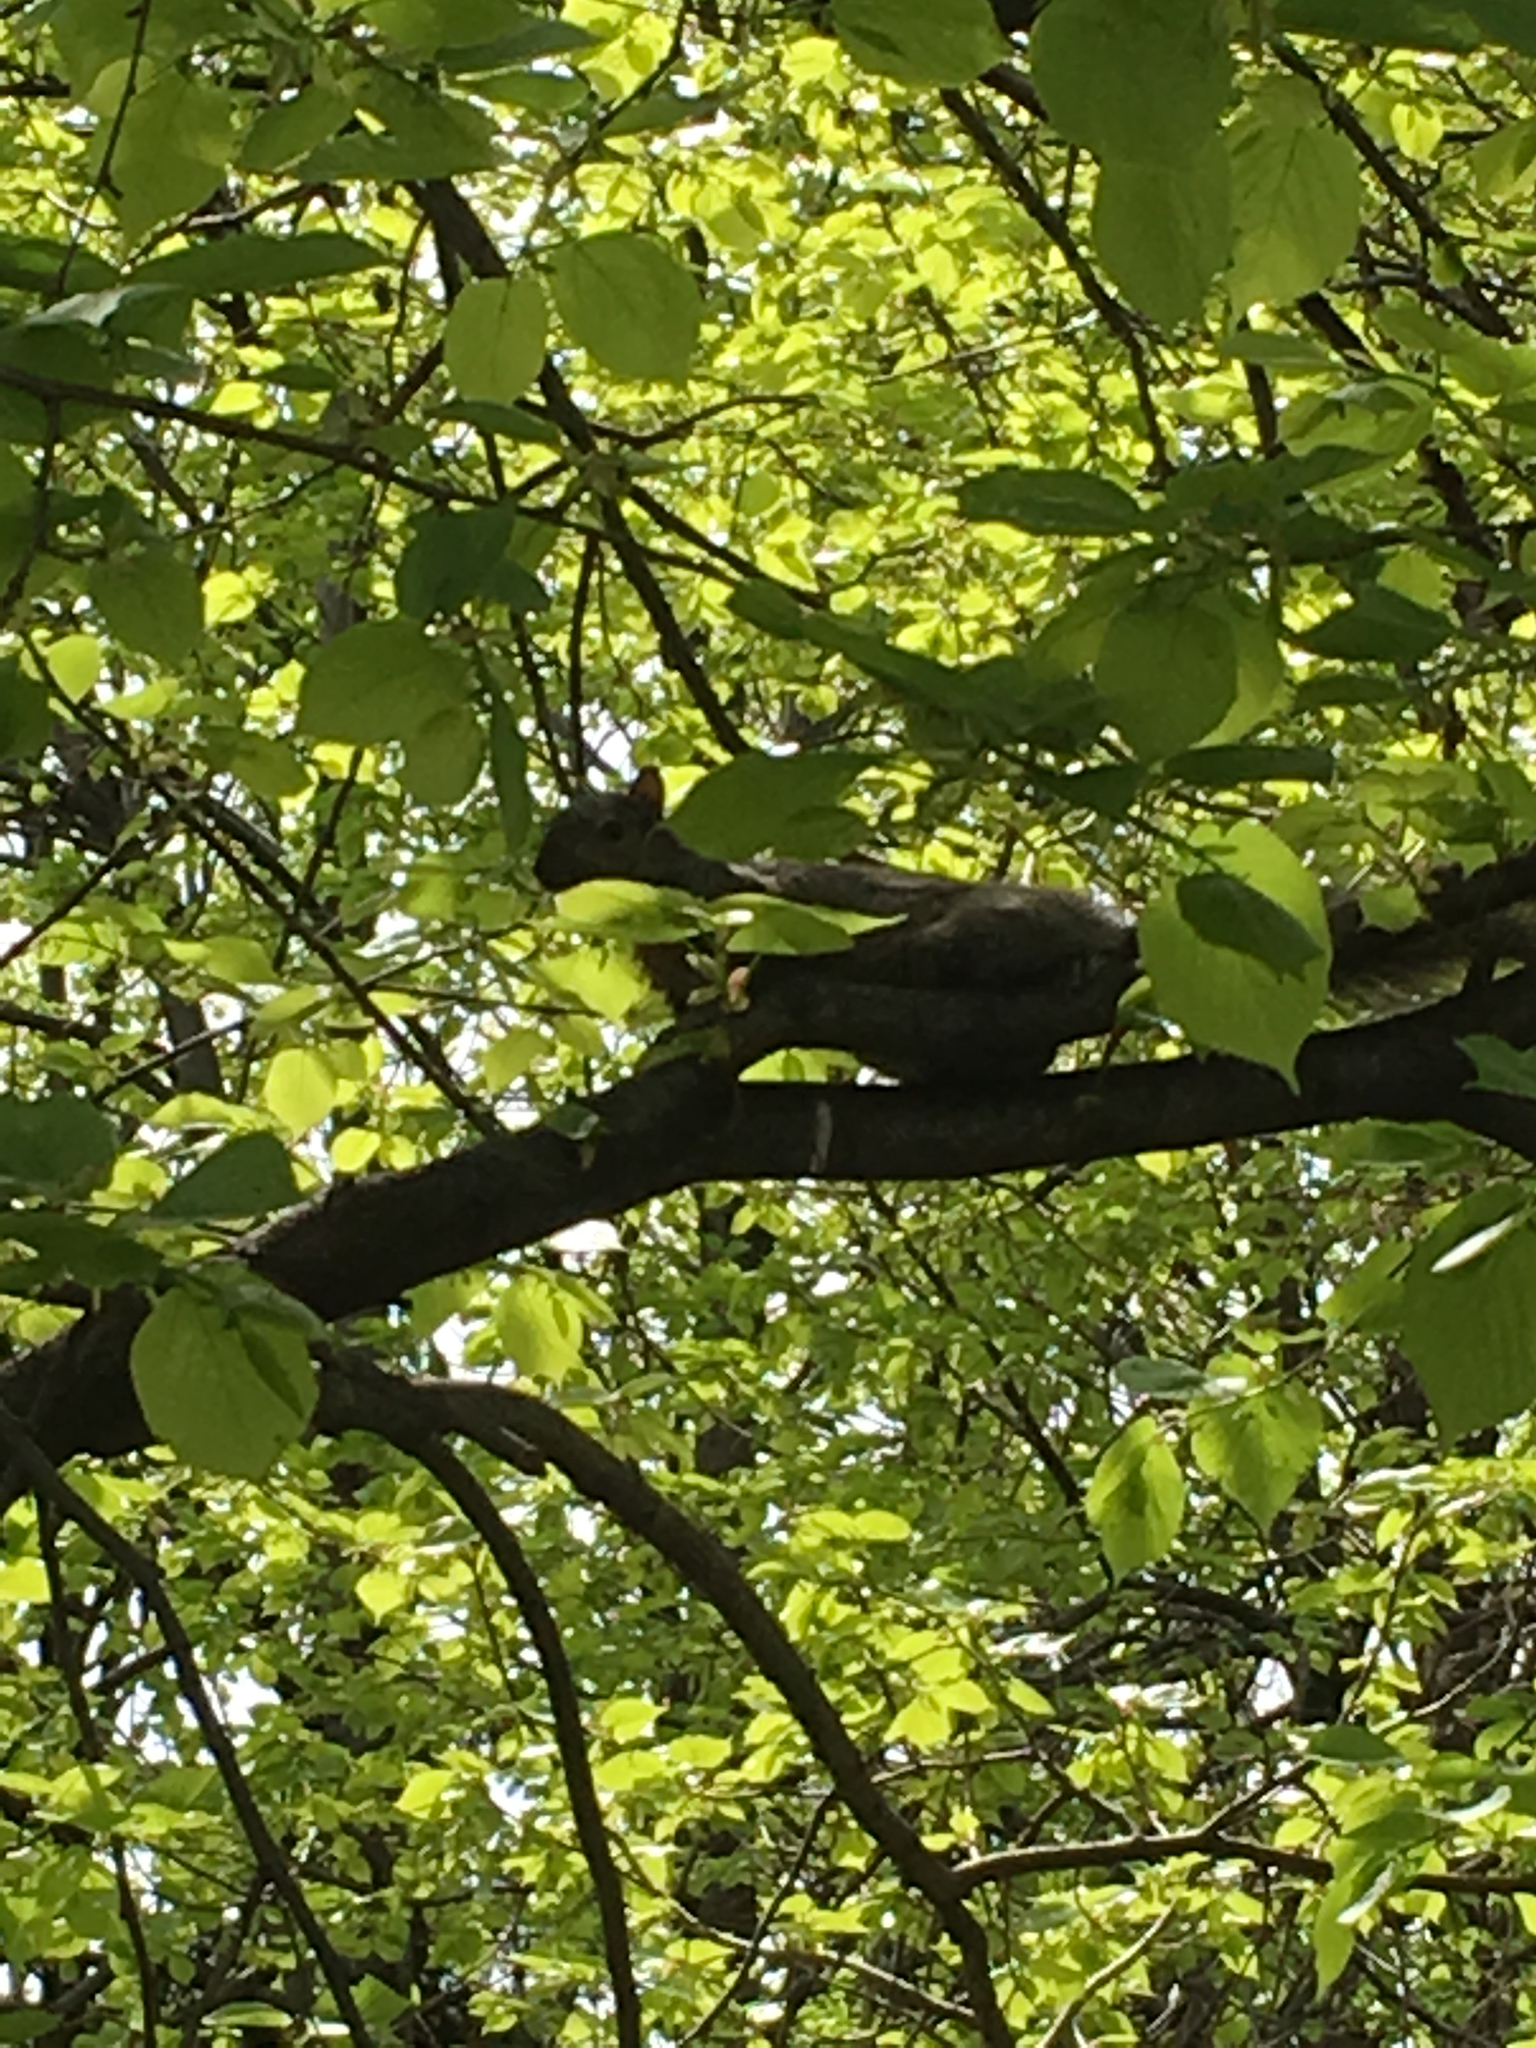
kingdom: Animalia
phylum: Chordata
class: Mammalia
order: Rodentia
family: Sciuridae
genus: Sciurus
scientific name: Sciurus carolinensis
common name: Eastern gray squirrel
